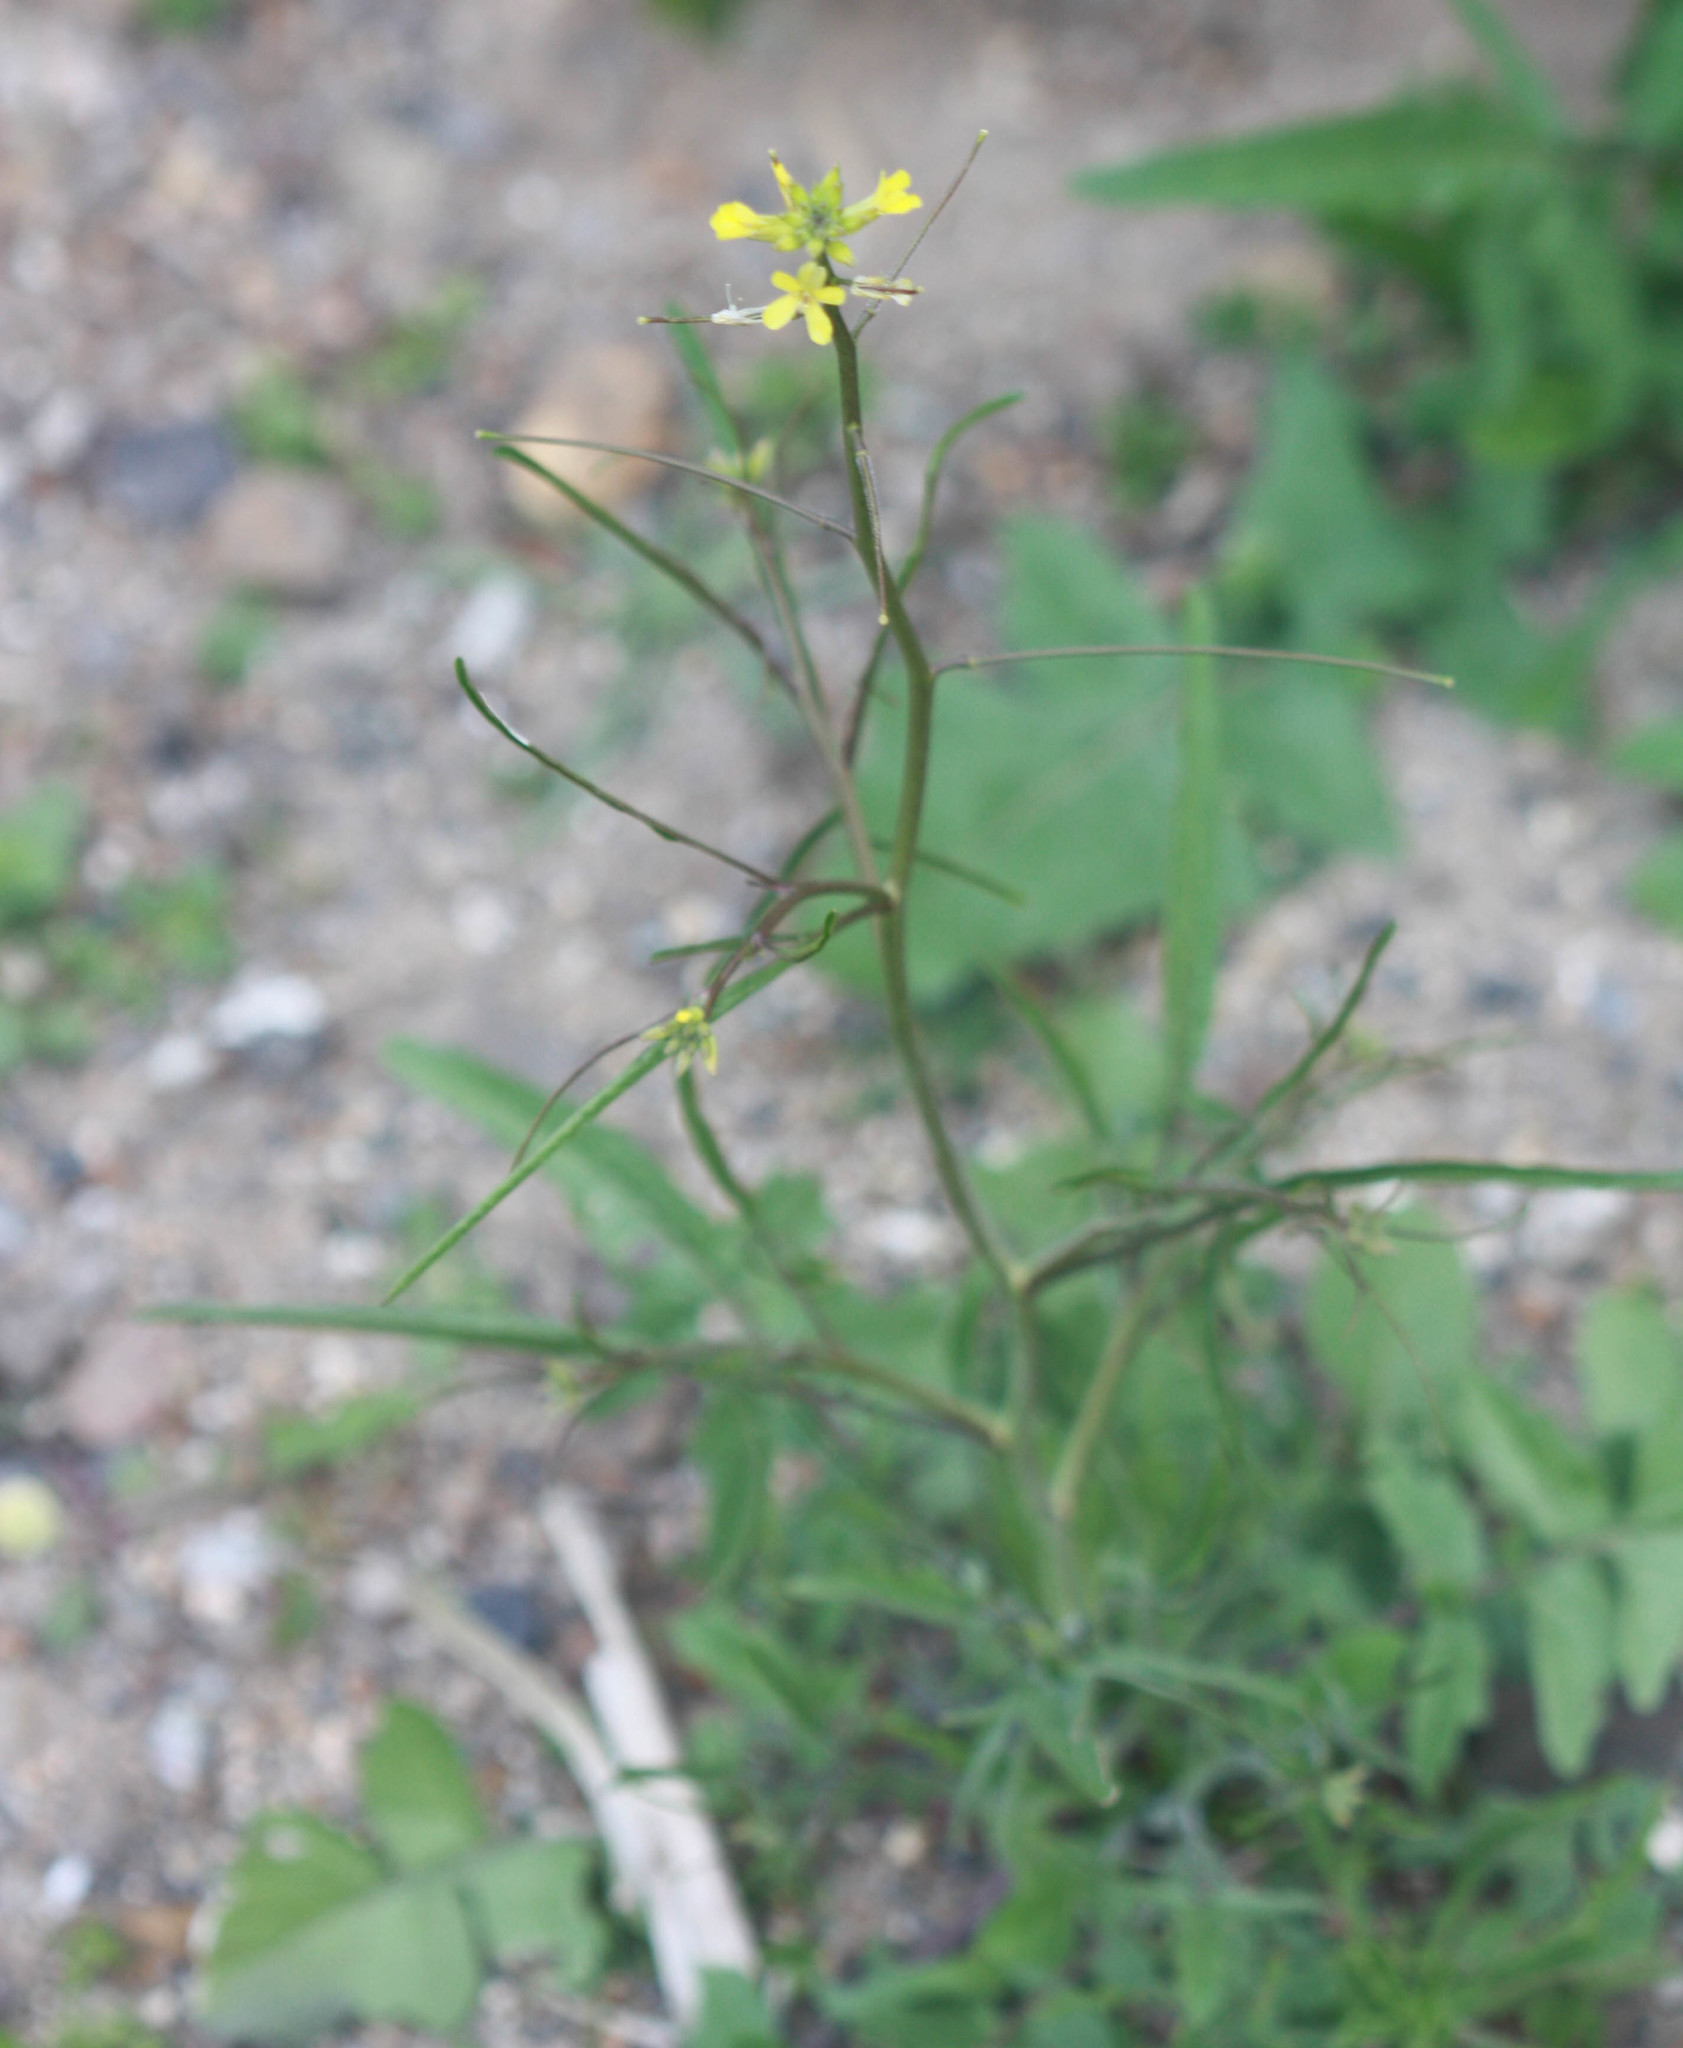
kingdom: Plantae
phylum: Tracheophyta
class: Magnoliopsida
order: Brassicales
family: Brassicaceae
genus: Sisymbrium
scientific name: Sisymbrium orientale
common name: Eastern rocket
